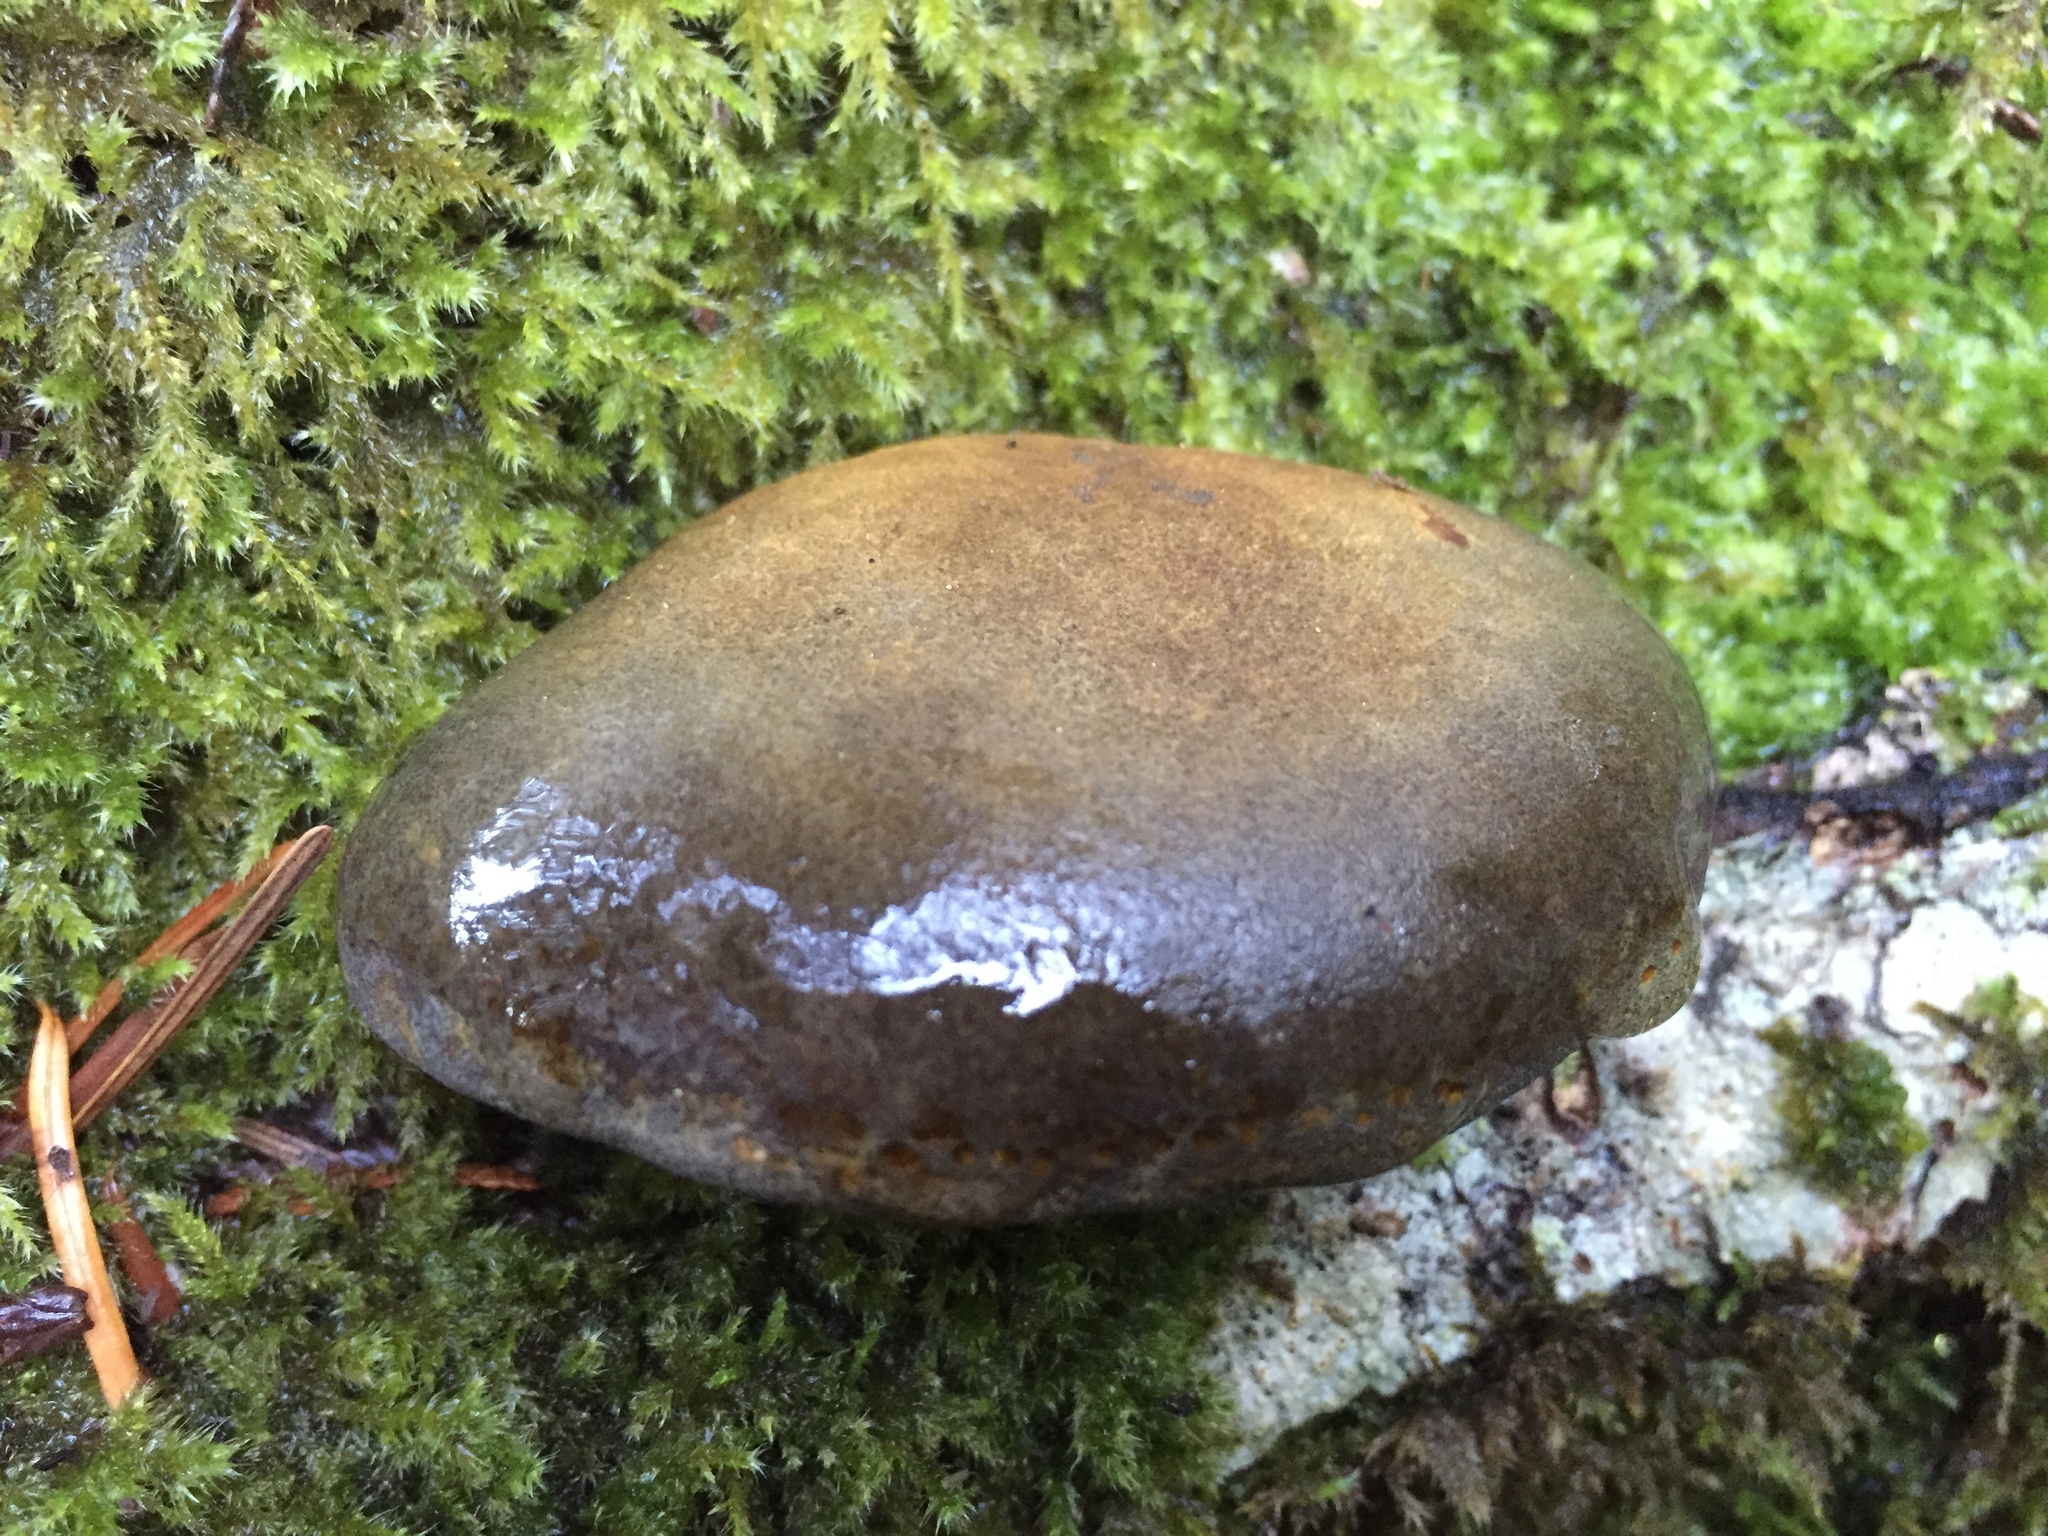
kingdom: Fungi
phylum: Basidiomycota
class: Agaricomycetes
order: Agaricales
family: Sarcomyxaceae
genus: Sarcomyxa
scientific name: Sarcomyxa serotina
